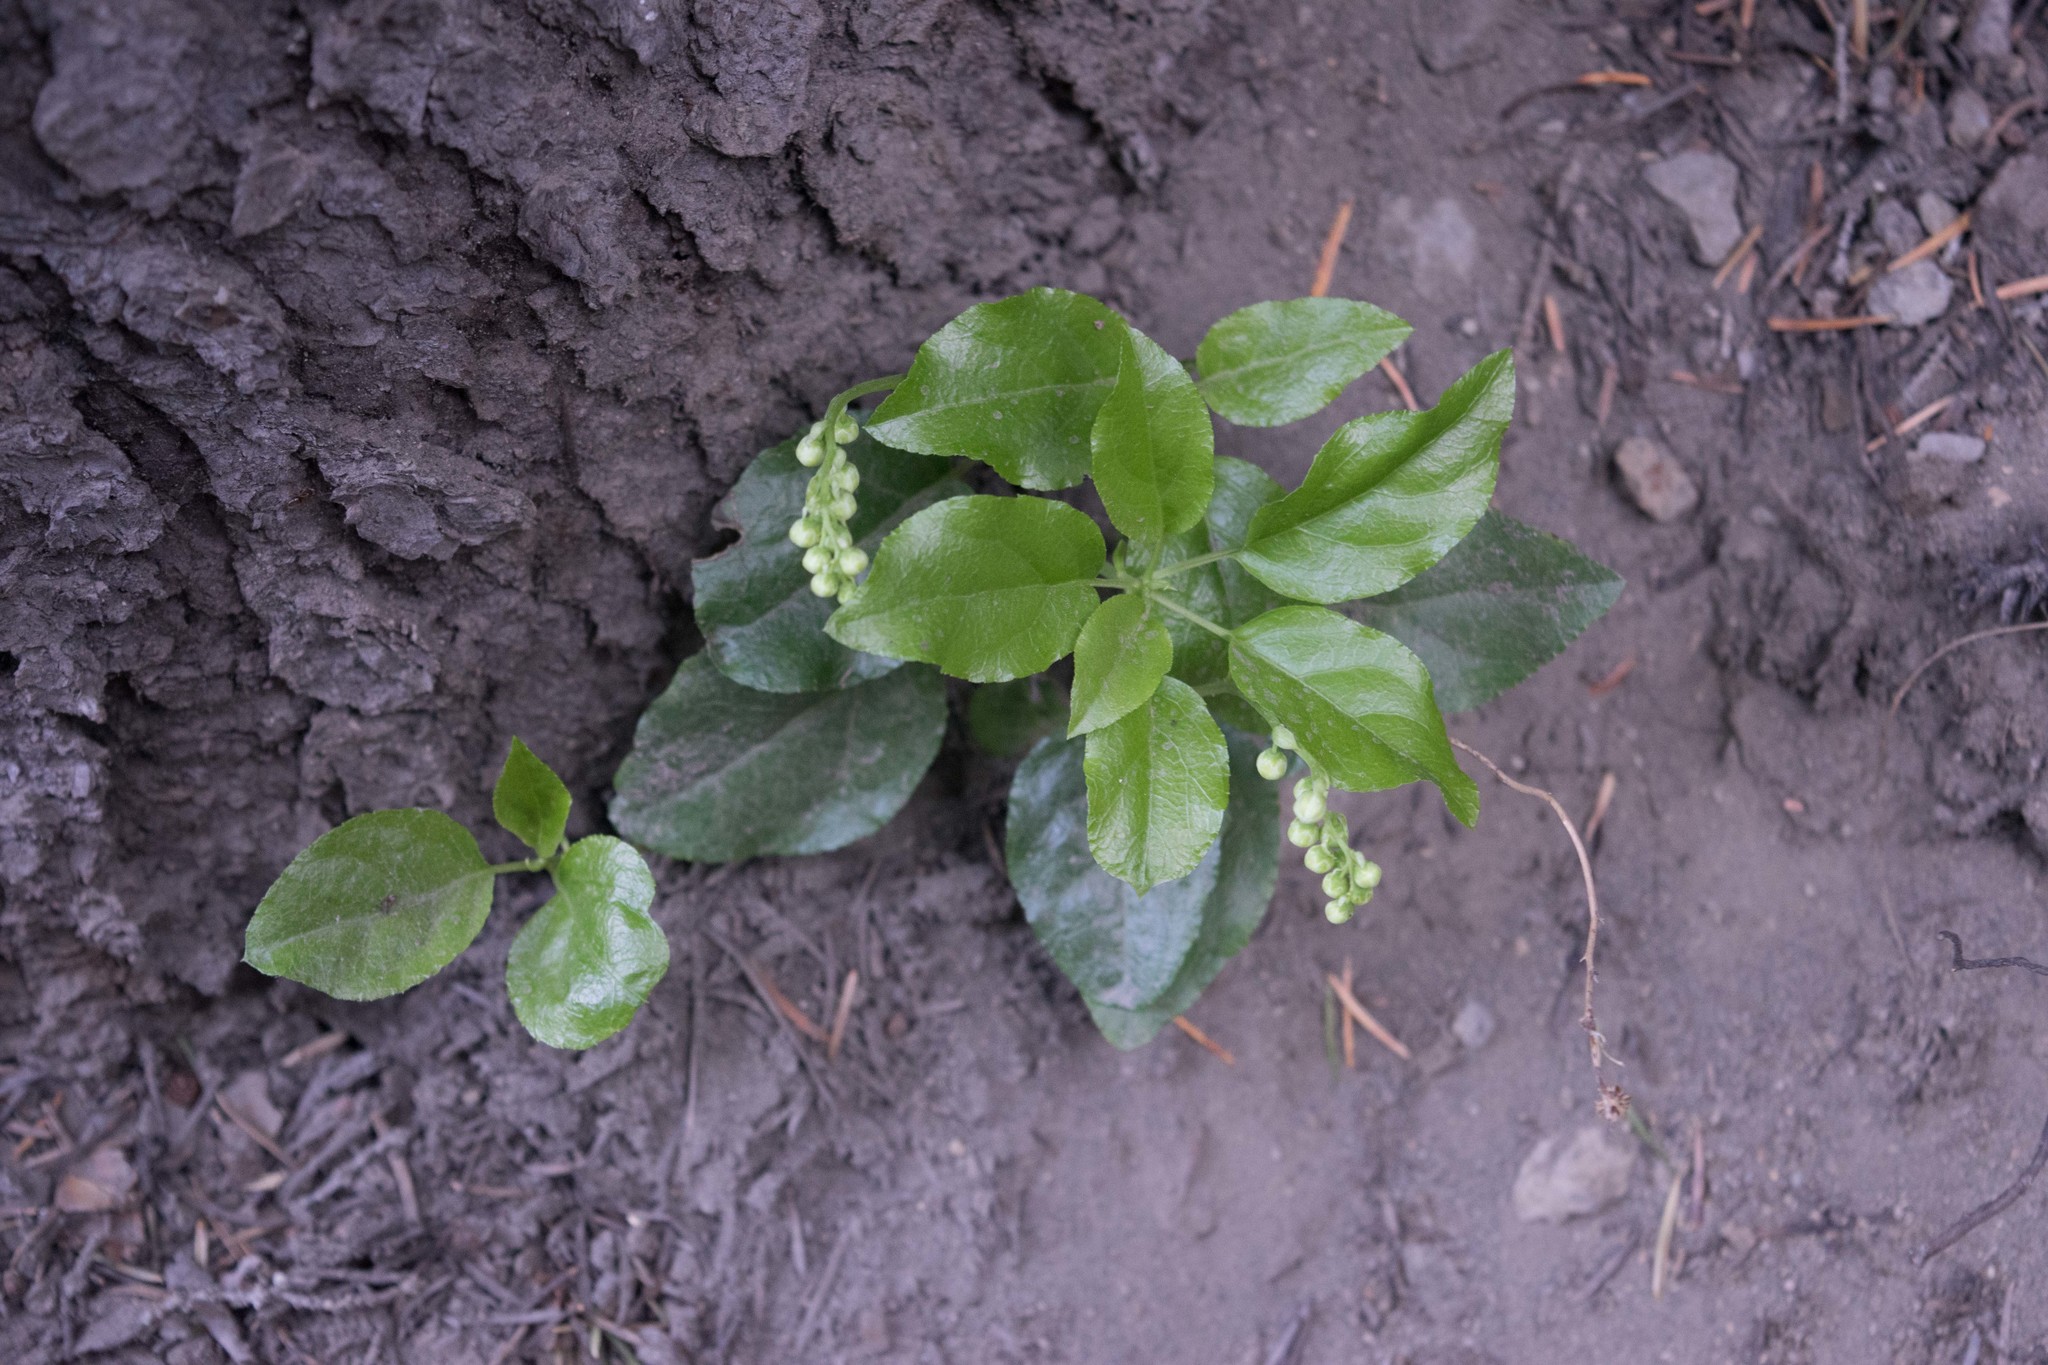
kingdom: Plantae
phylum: Tracheophyta
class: Magnoliopsida
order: Ericales
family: Ericaceae
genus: Orthilia
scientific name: Orthilia secunda
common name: One-sided orthilia
